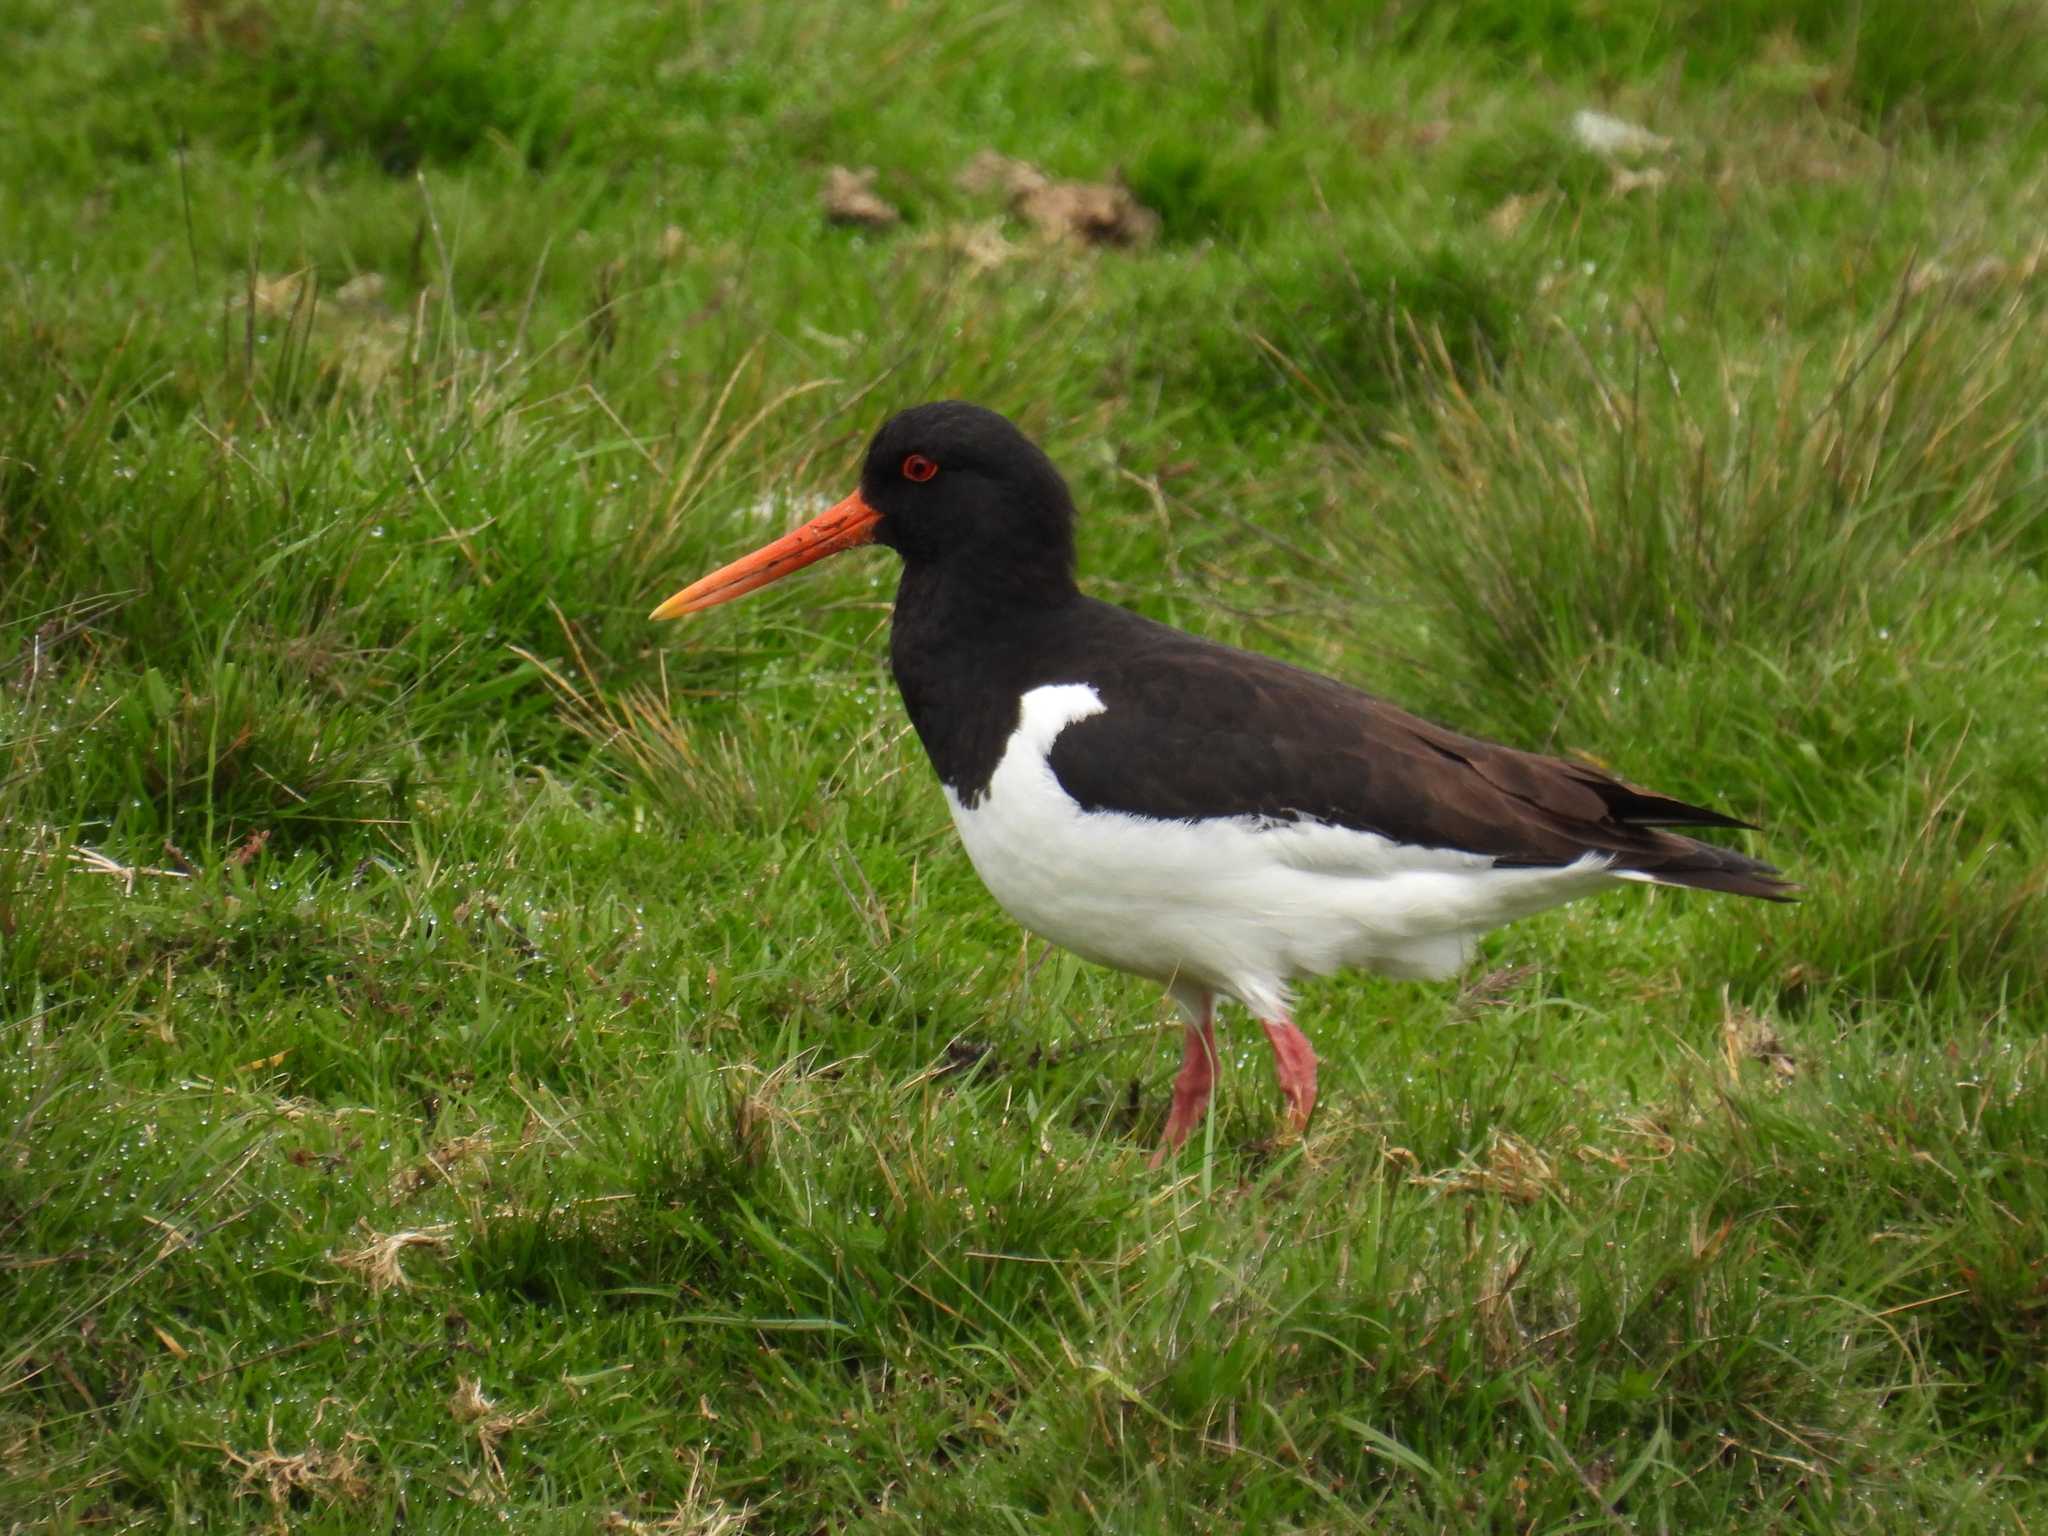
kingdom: Animalia
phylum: Chordata
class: Aves
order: Charadriiformes
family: Haematopodidae
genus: Haematopus
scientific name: Haematopus ostralegus
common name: Eurasian oystercatcher
